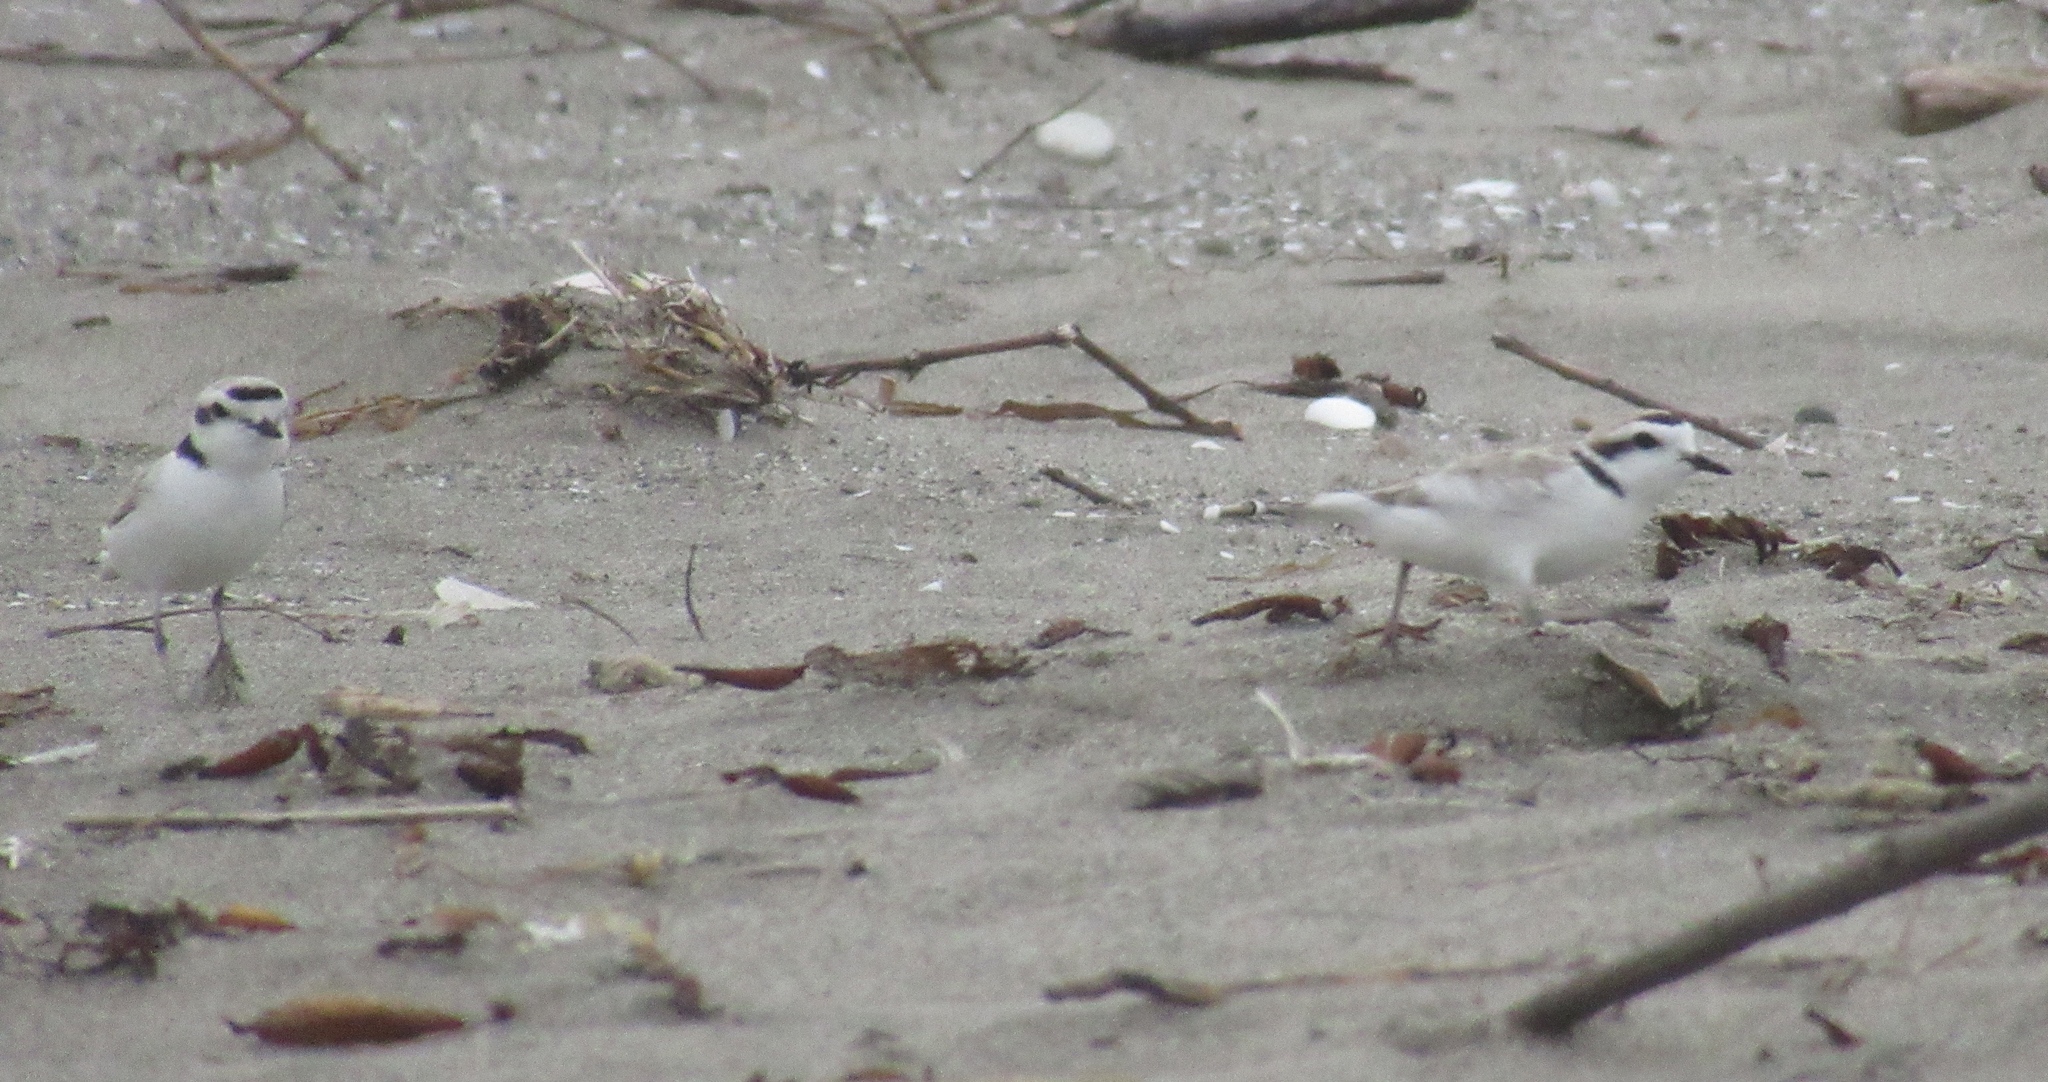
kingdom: Animalia
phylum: Chordata
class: Aves
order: Charadriiformes
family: Charadriidae
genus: Anarhynchus
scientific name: Anarhynchus
